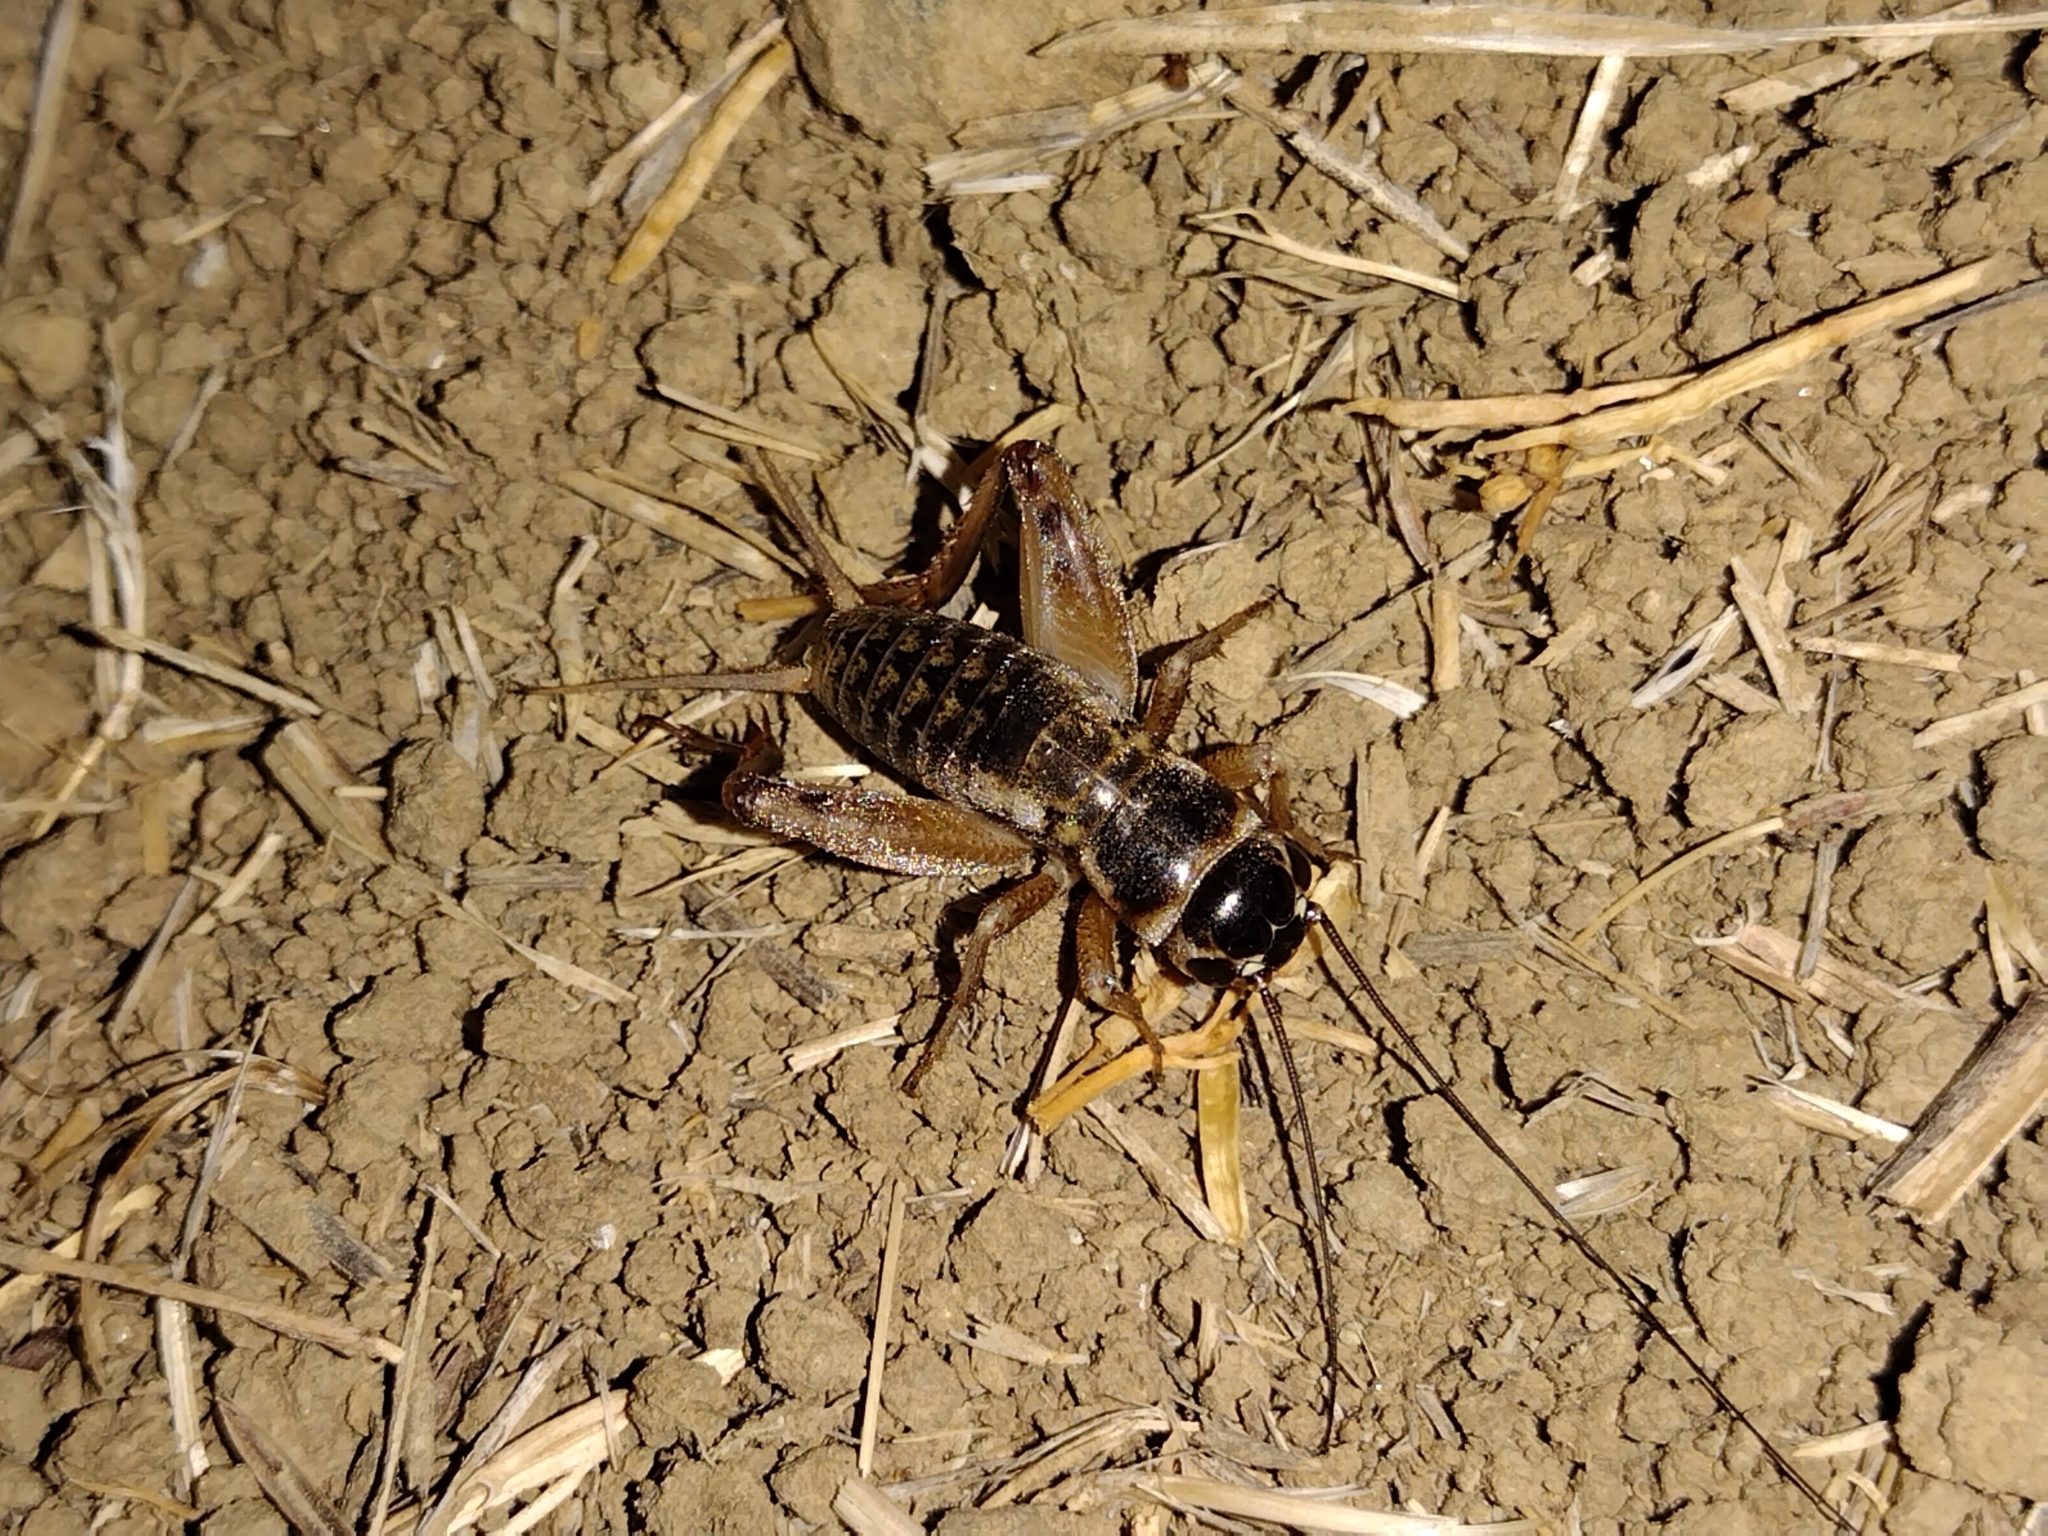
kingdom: Animalia
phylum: Arthropoda
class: Insecta
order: Orthoptera
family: Gryllidae
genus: Gryllus
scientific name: Gryllus
